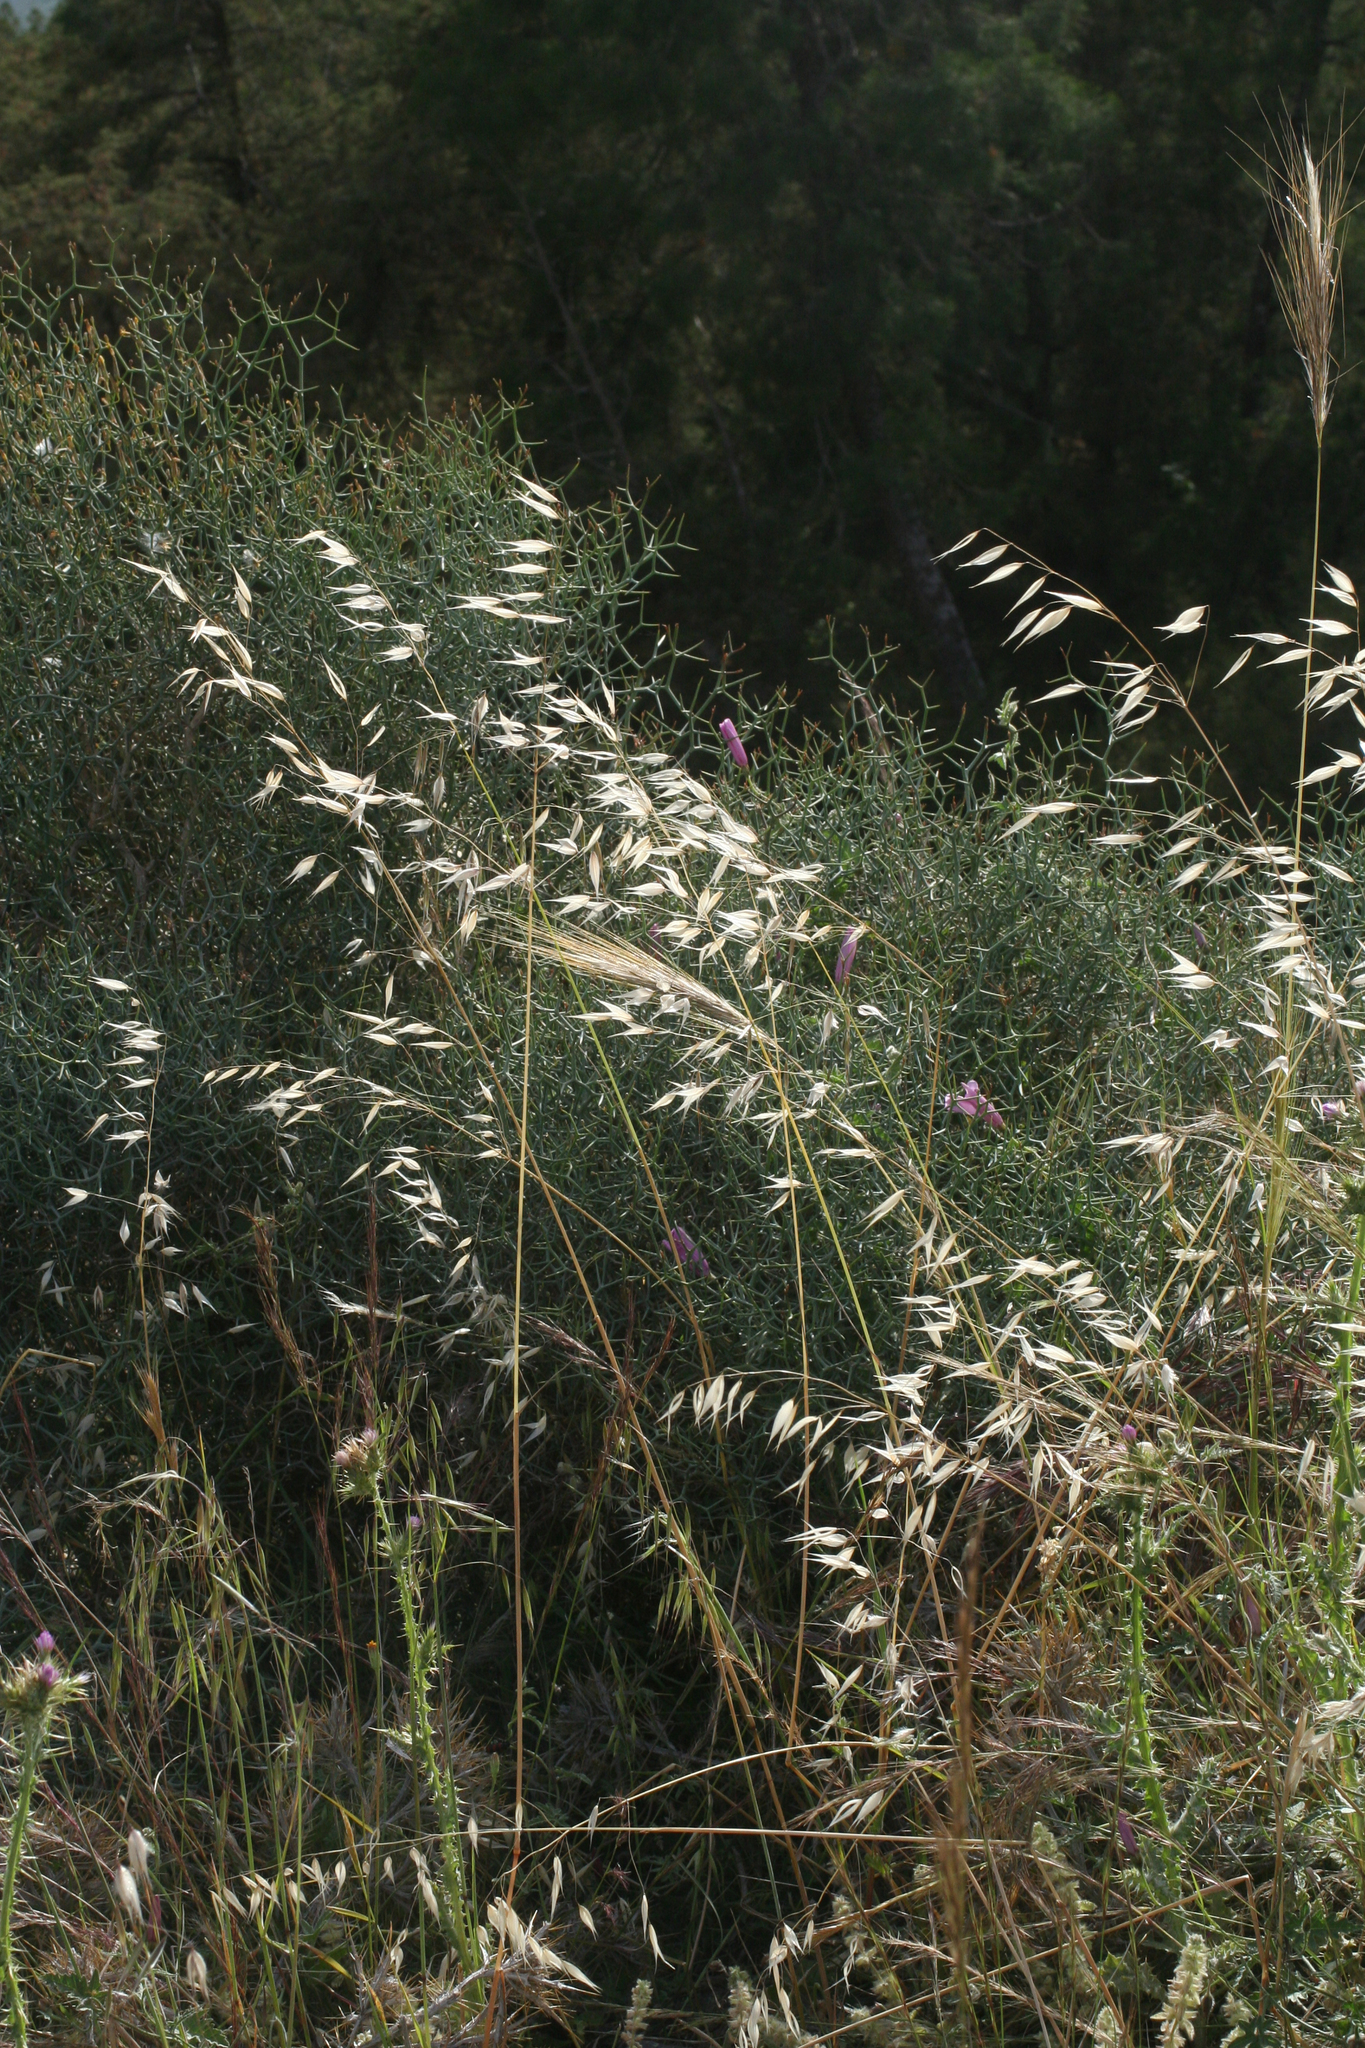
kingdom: Plantae
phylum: Tracheophyta
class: Liliopsida
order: Poales
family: Poaceae
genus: Avena
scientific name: Avena sterilis
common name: Animated oat
